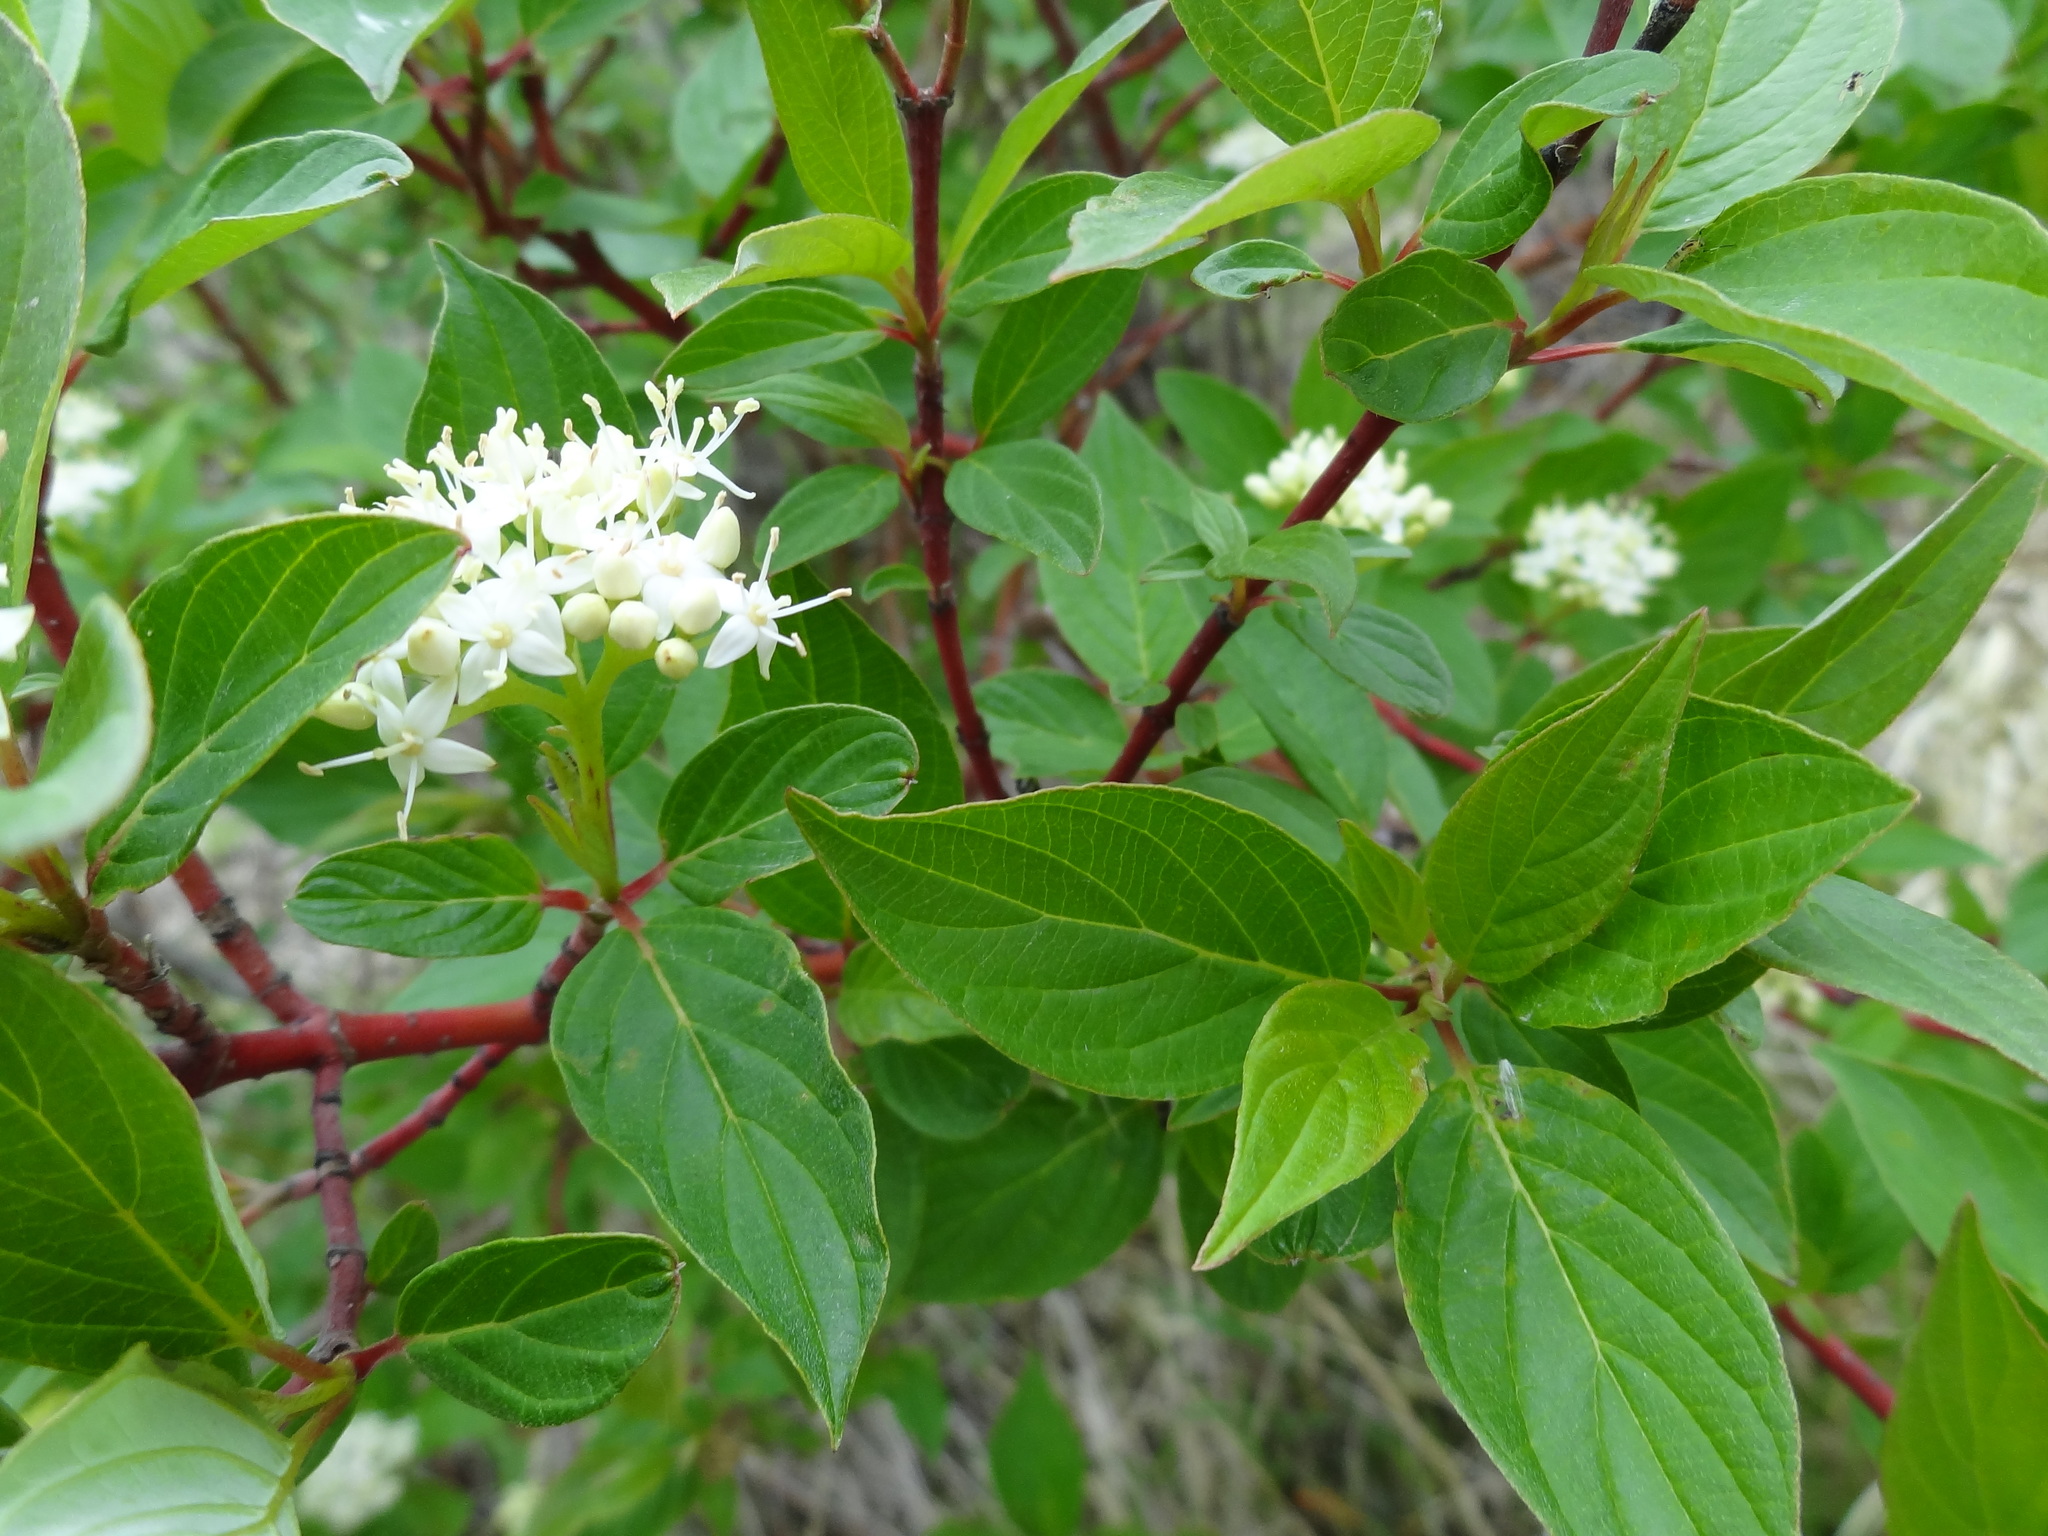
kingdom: Plantae
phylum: Tracheophyta
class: Magnoliopsida
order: Cornales
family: Cornaceae
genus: Cornus
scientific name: Cornus sericea
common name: Red-osier dogwood
